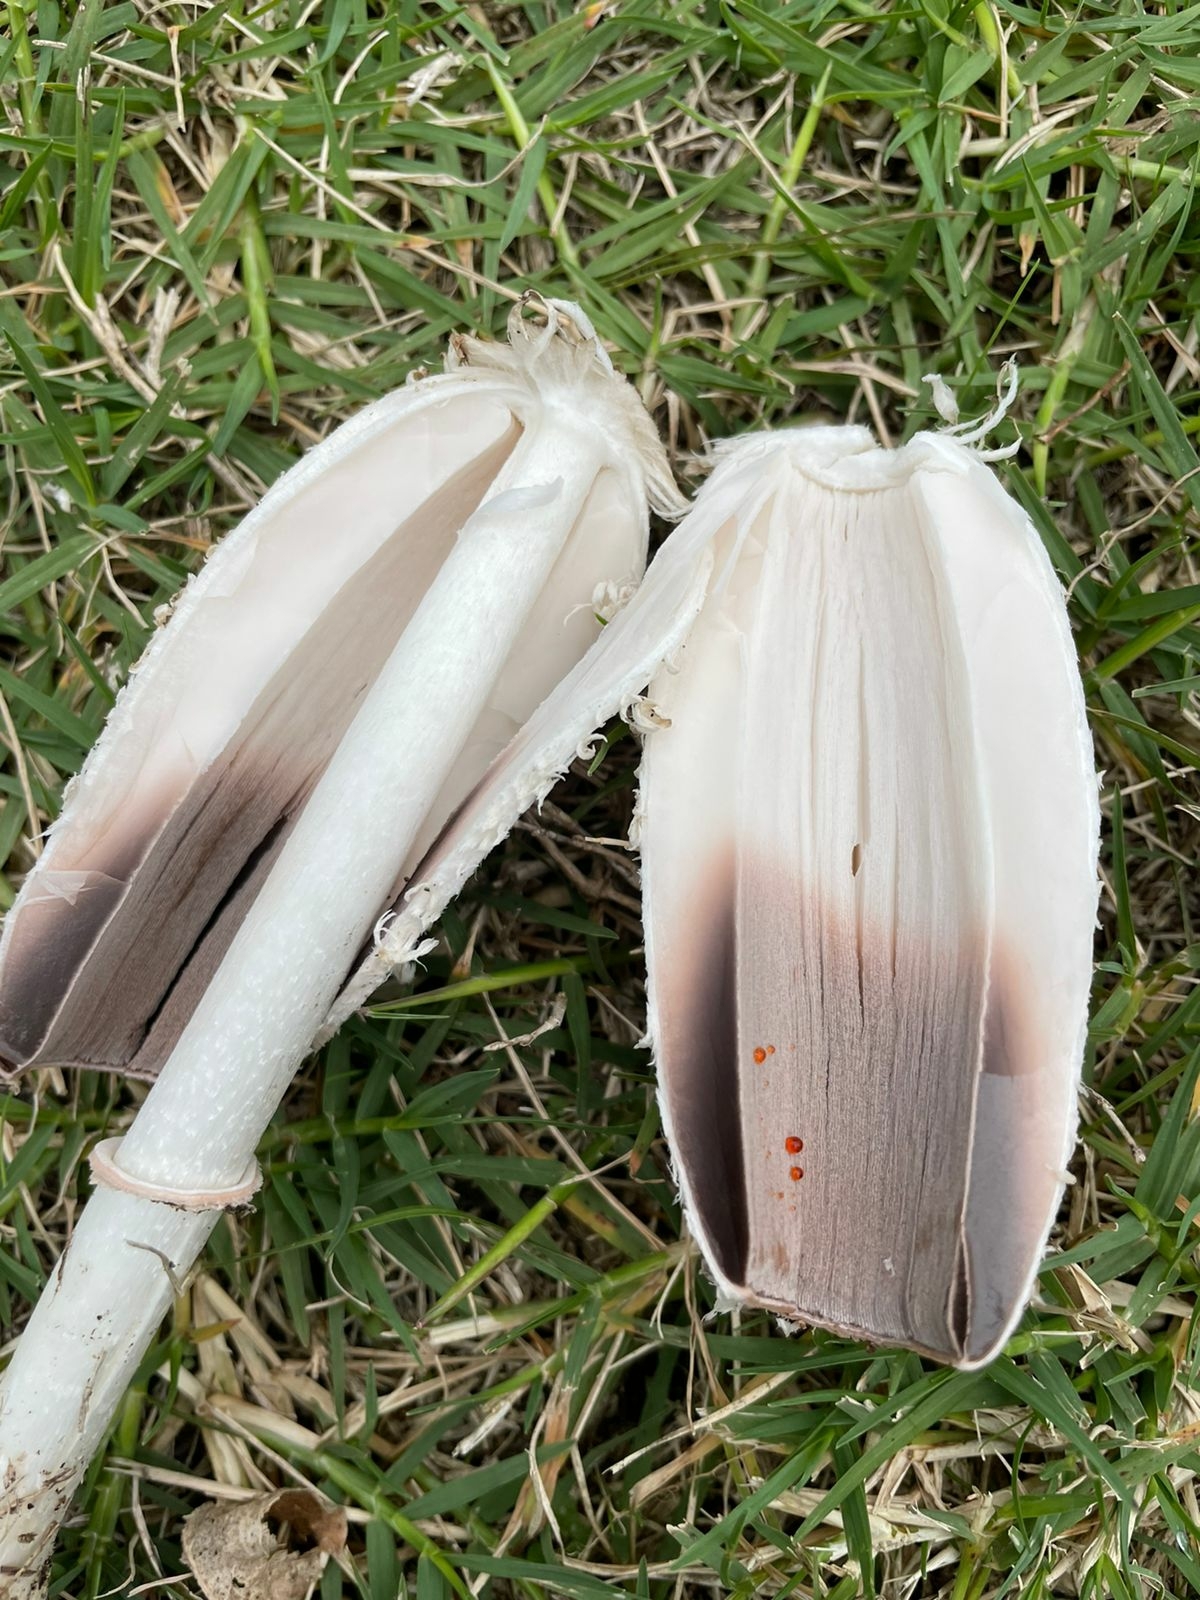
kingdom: Fungi
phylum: Basidiomycota
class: Agaricomycetes
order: Agaricales
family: Agaricaceae
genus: Coprinus
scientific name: Coprinus comatus
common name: Lawyer's wig
